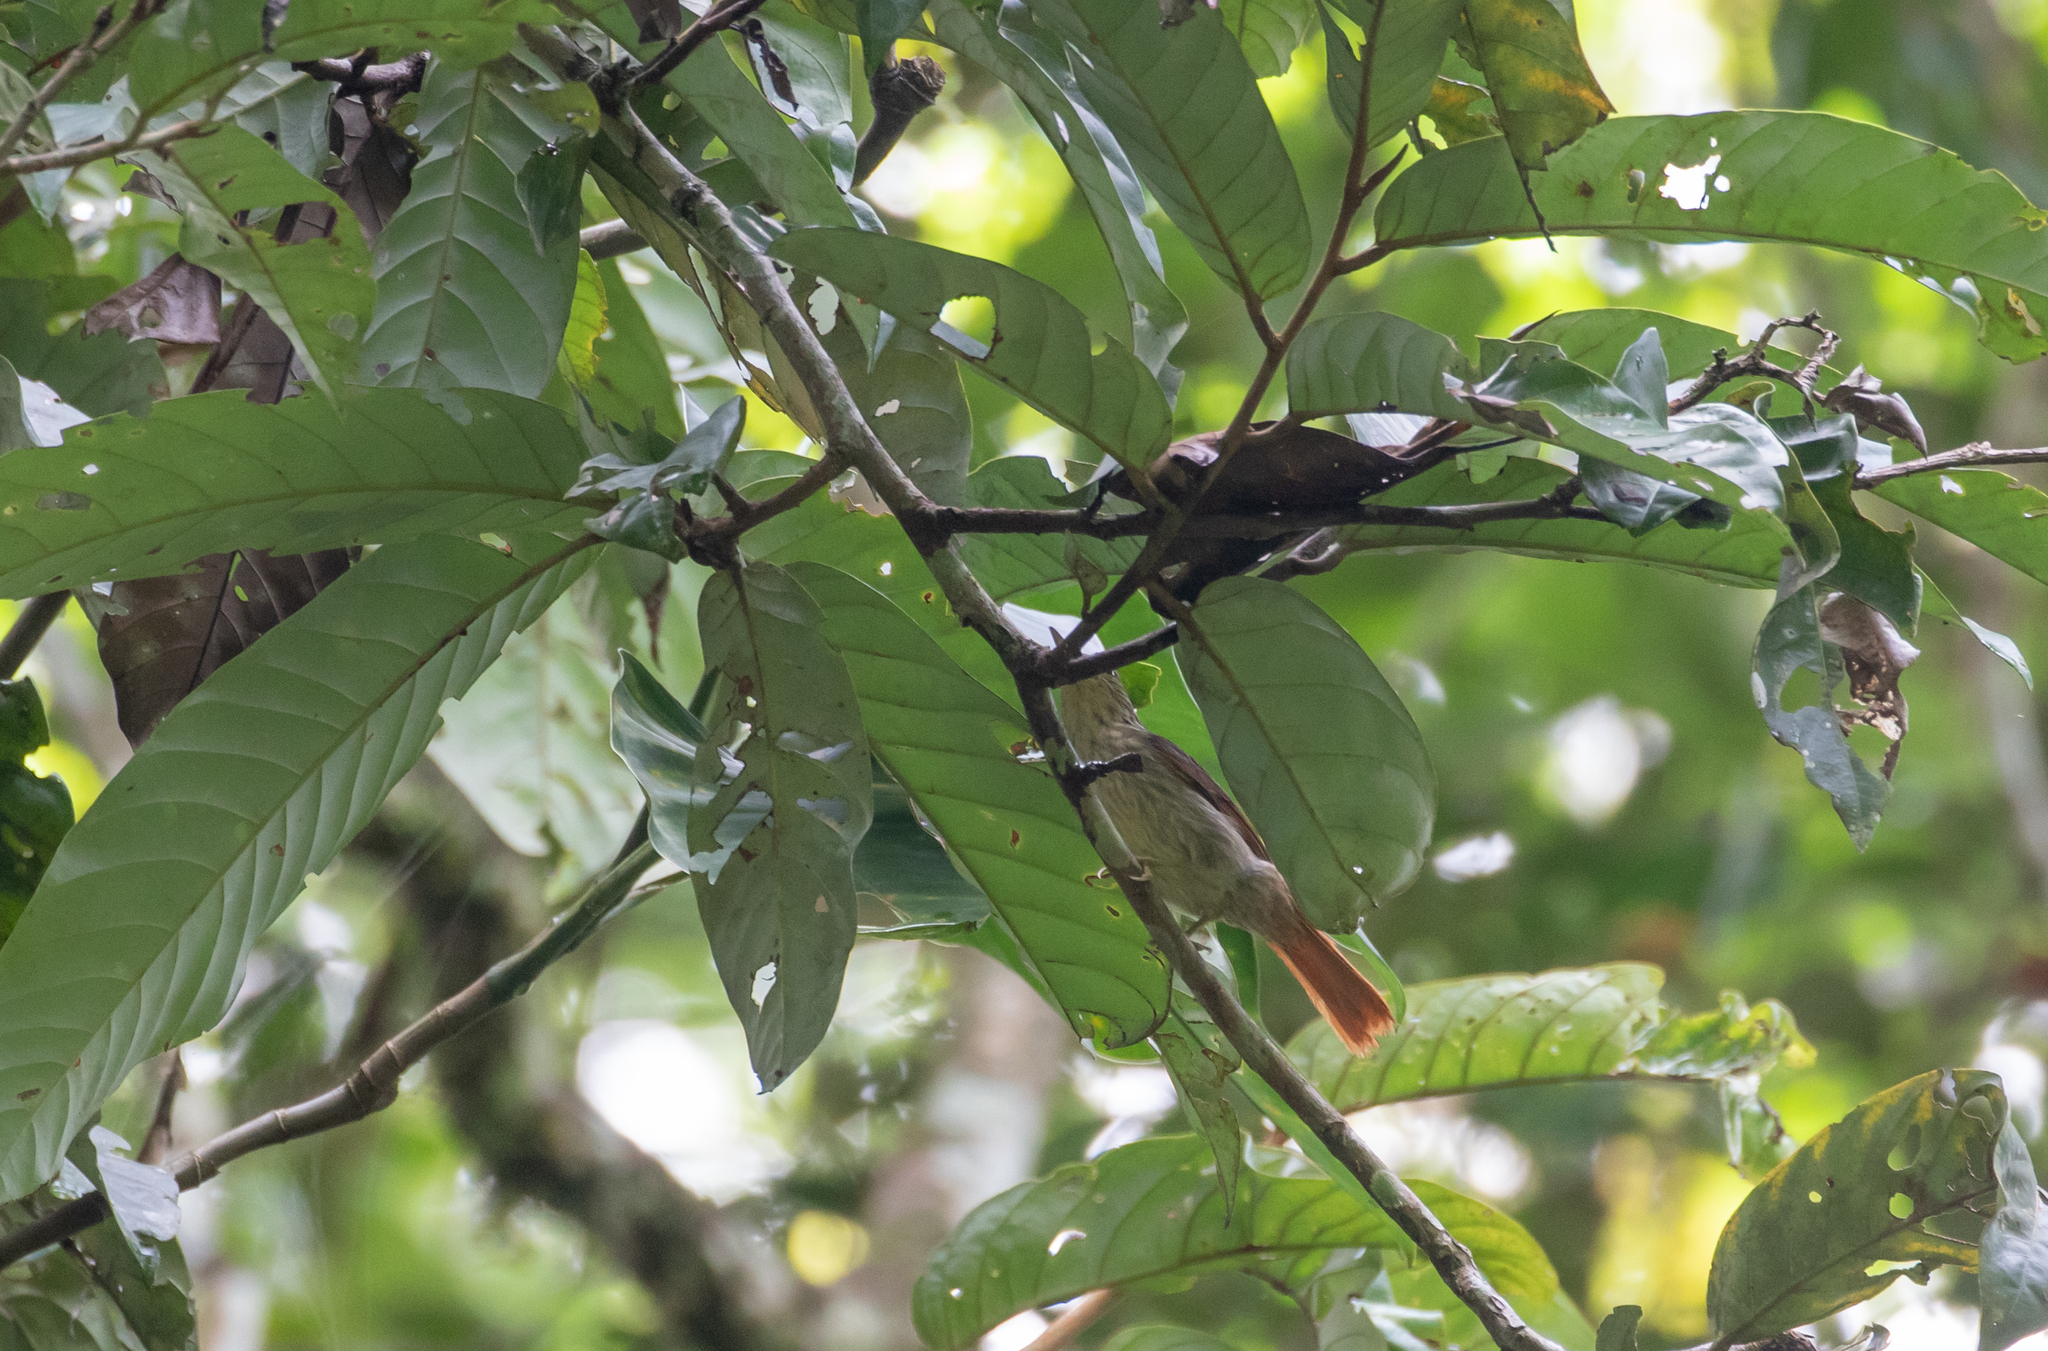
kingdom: Animalia
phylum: Chordata
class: Aves
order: Passeriformes
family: Furnariidae
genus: Ancistrops
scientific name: Ancistrops strigilatus
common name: Chestnut-winged hookbill
